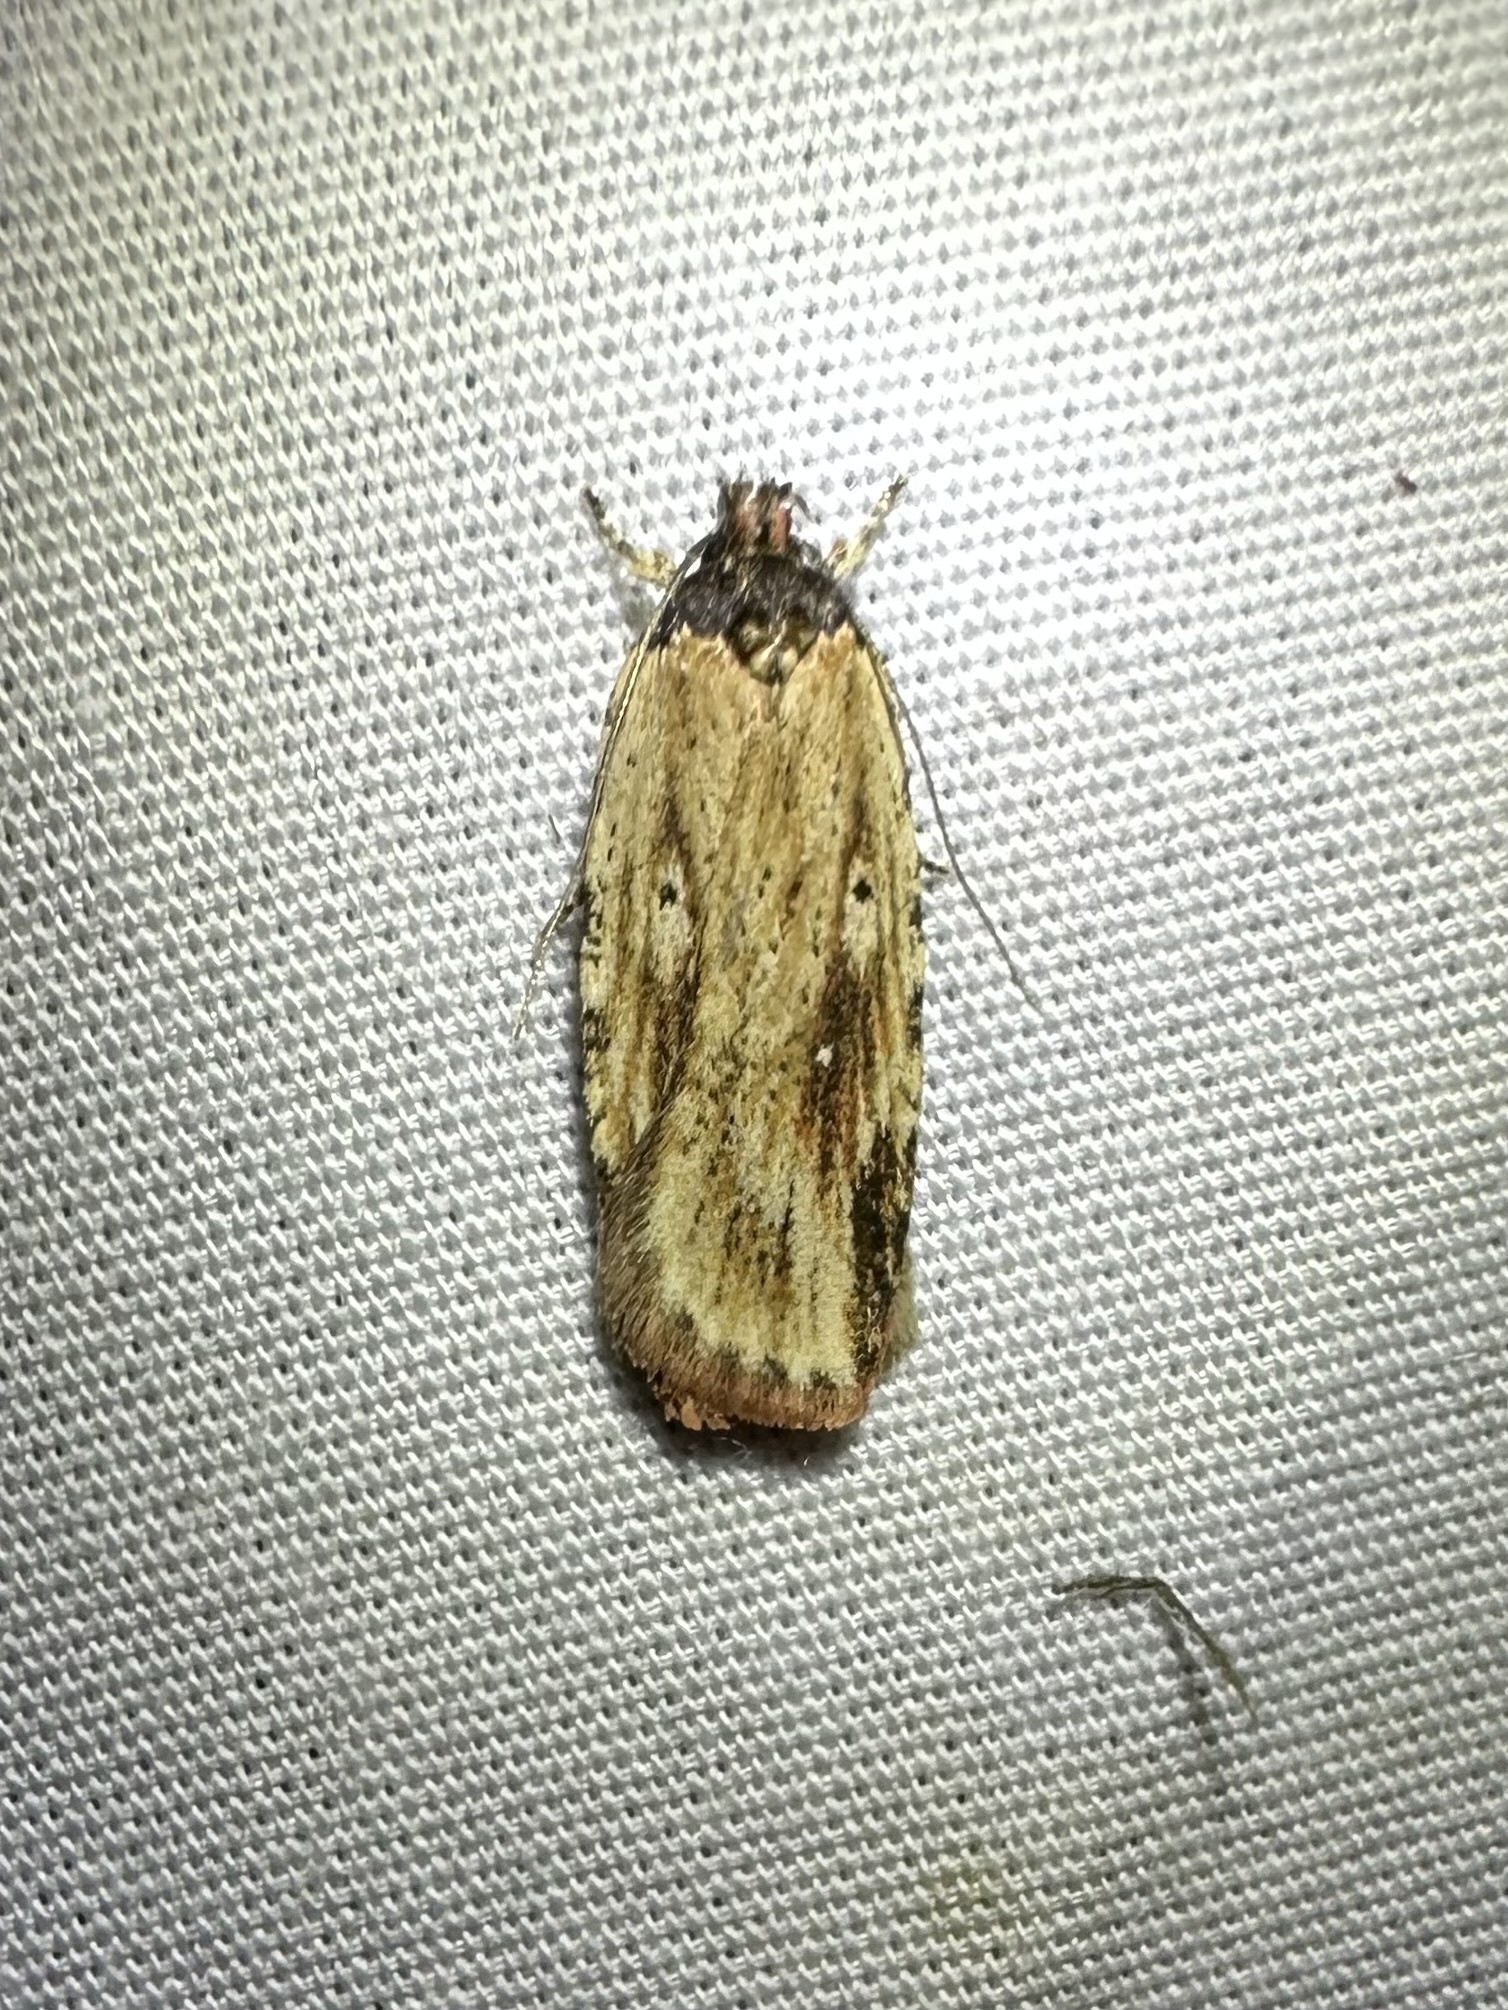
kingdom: Animalia
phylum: Arthropoda
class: Insecta
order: Lepidoptera
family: Depressariidae
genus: Agonopterix
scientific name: Agonopterix atrodorsella
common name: Beggartick leaffolder
